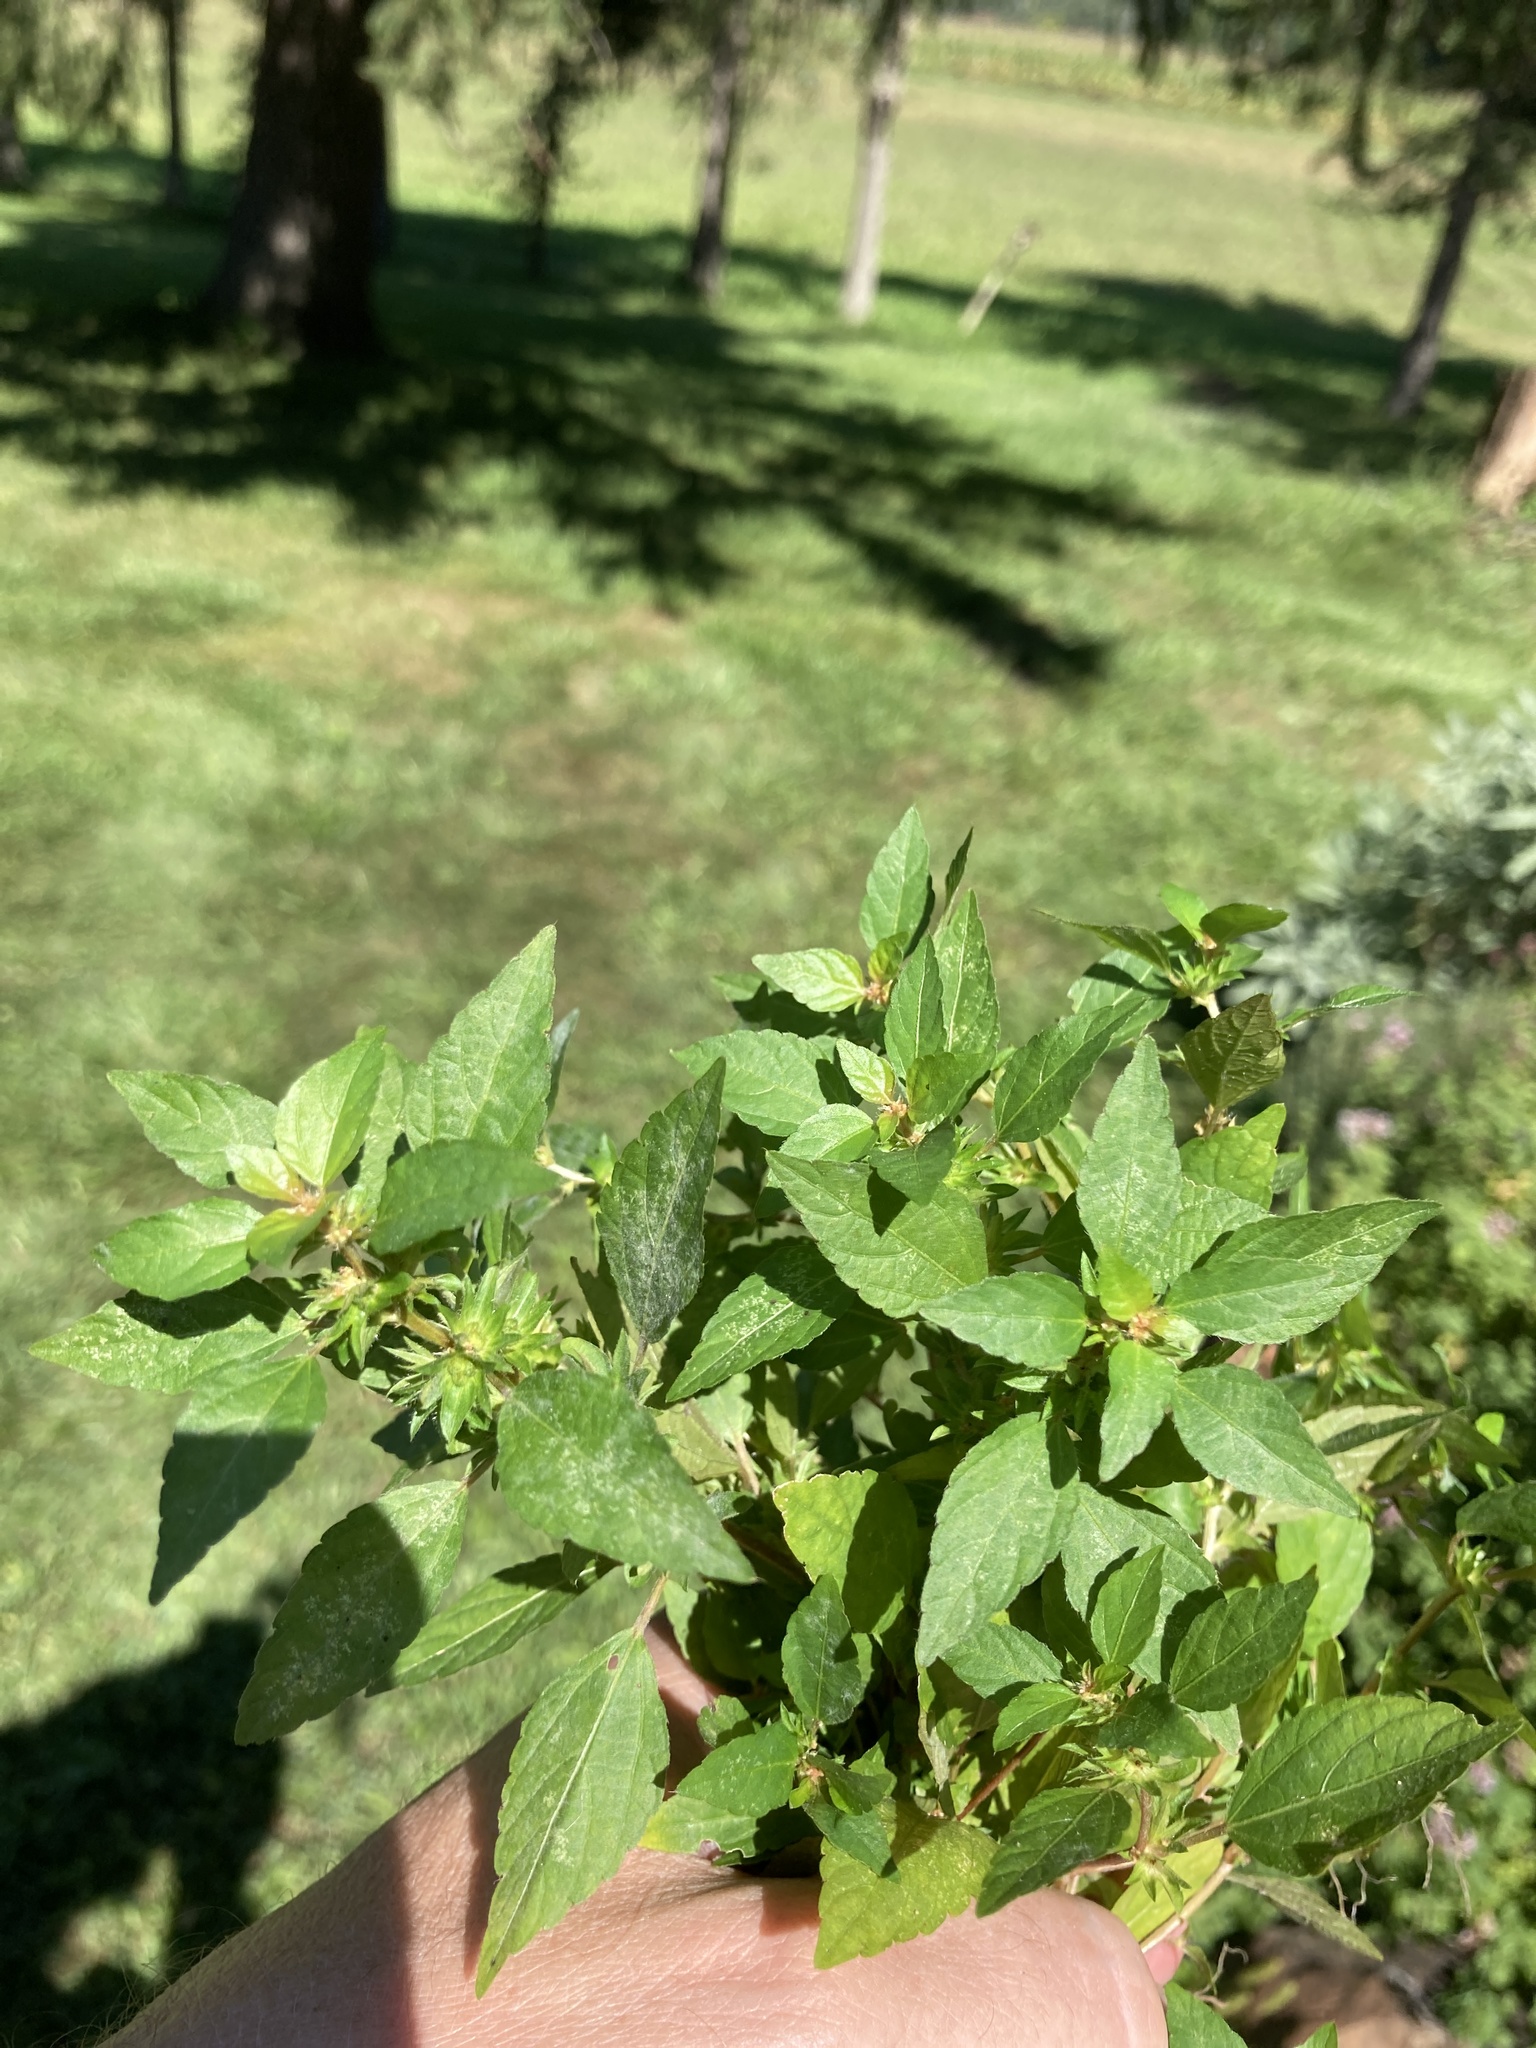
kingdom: Plantae
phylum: Tracheophyta
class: Magnoliopsida
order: Malpighiales
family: Euphorbiaceae
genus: Acalypha
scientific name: Acalypha rhomboidea
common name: Rhombic copperleaf
